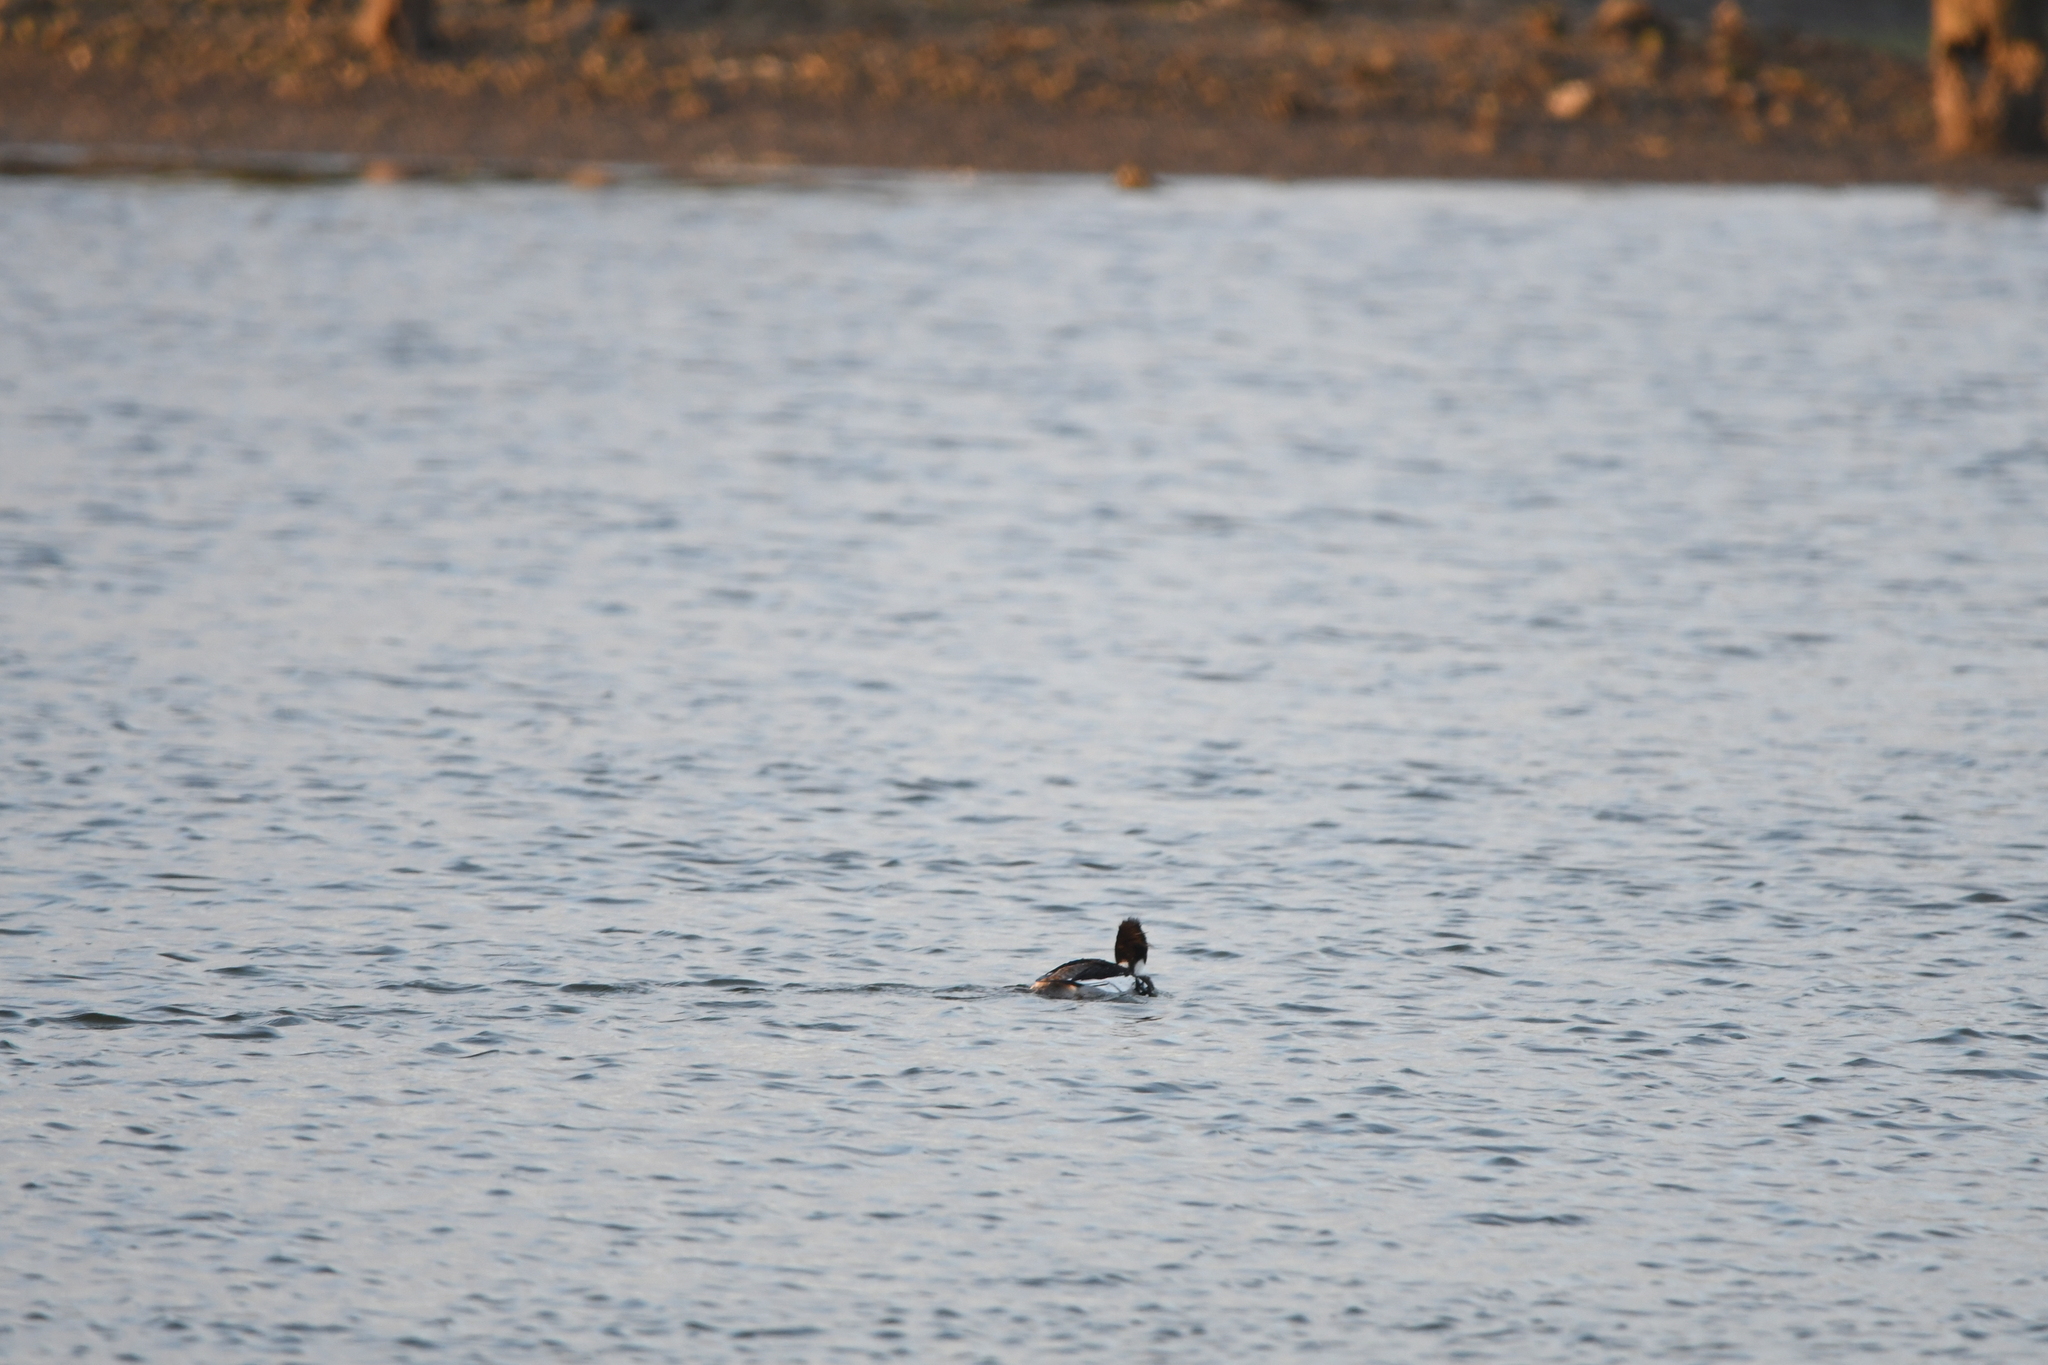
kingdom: Animalia
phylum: Chordata
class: Aves
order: Anseriformes
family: Anatidae
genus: Mergus
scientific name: Mergus serrator
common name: Red-breasted merganser
